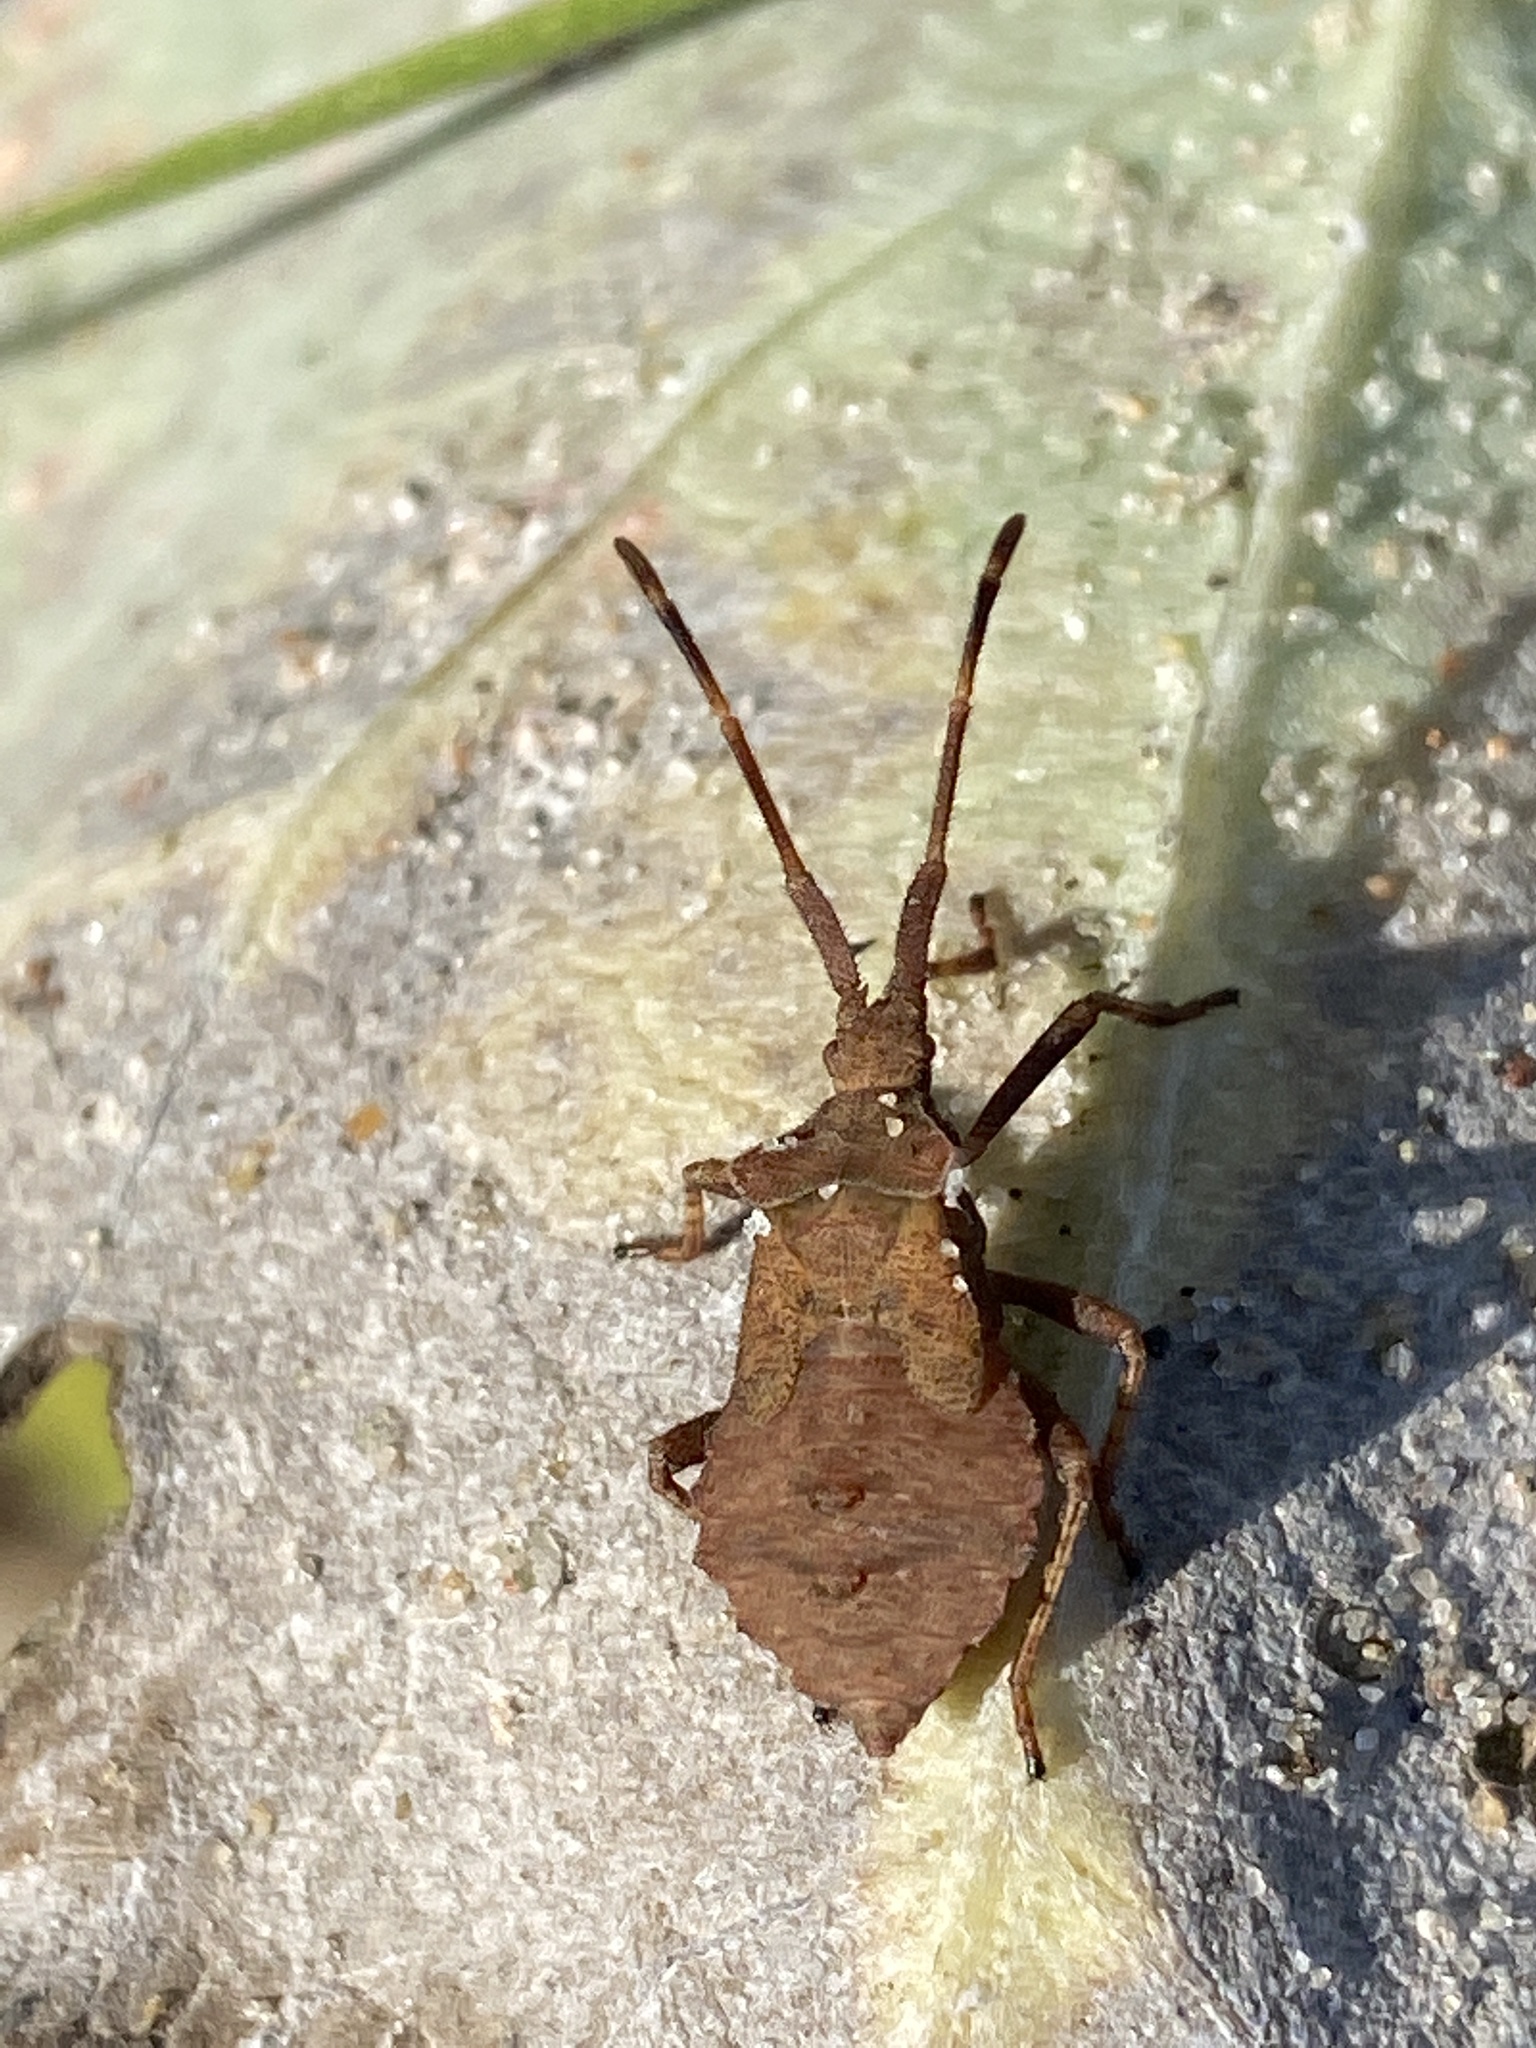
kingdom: Animalia
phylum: Arthropoda
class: Insecta
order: Hemiptera
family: Coreidae
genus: Coreus
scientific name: Coreus marginatus
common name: Dock bug
